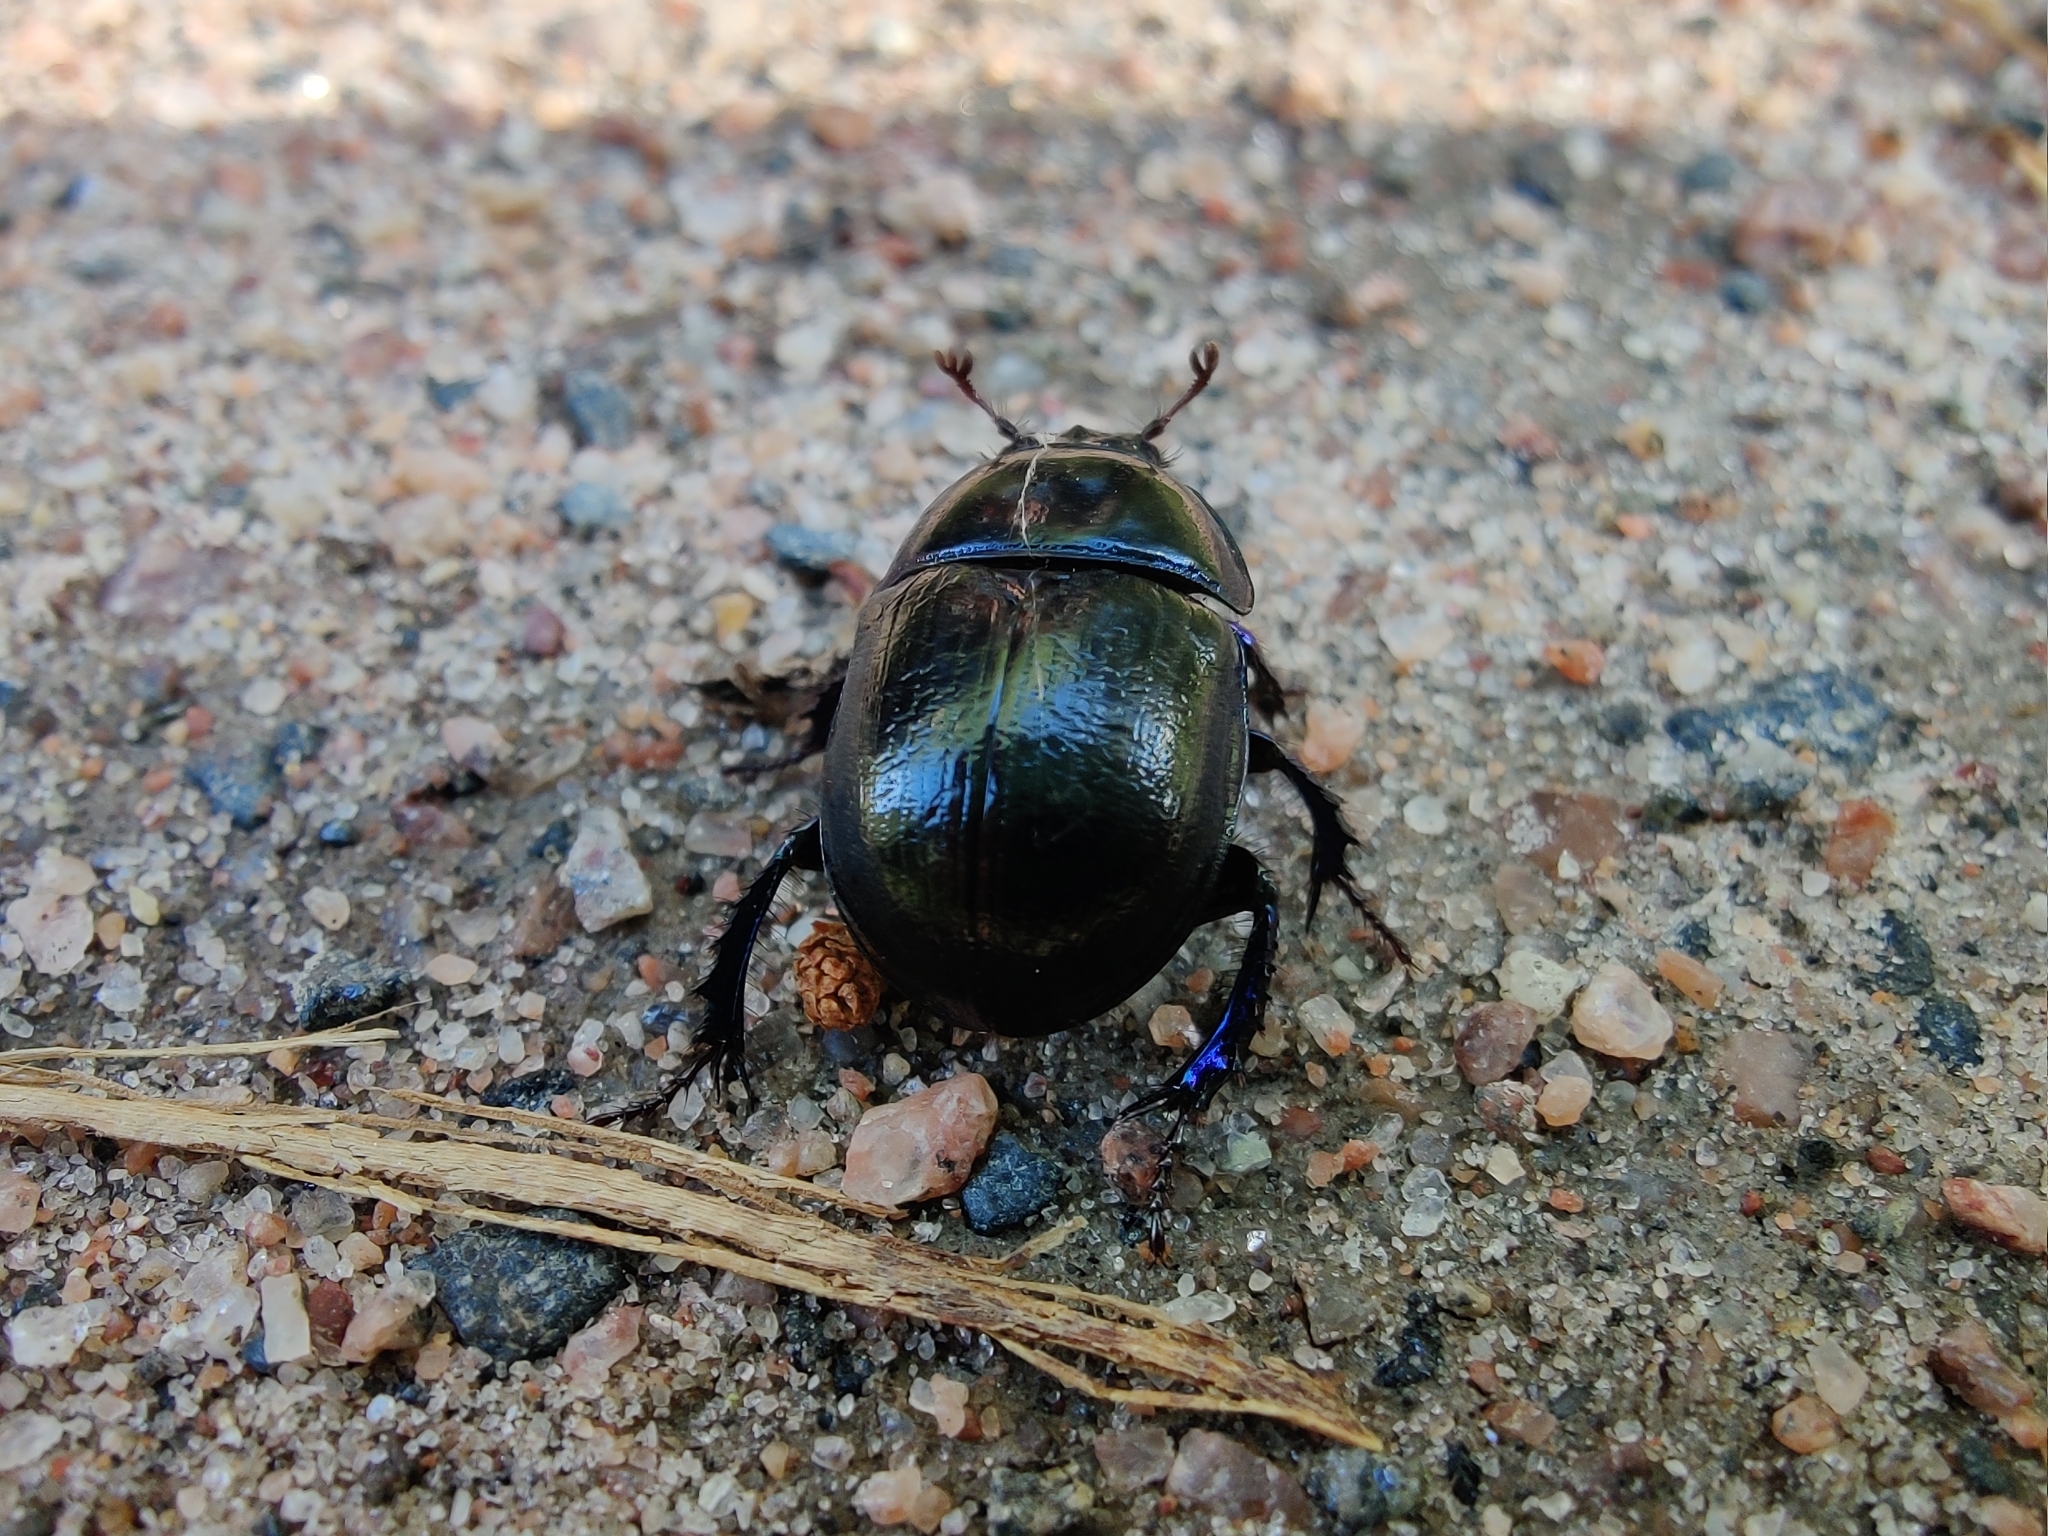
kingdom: Animalia
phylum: Arthropoda
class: Insecta
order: Coleoptera
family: Geotrupidae
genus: Anoplotrupes
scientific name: Anoplotrupes stercorosus
